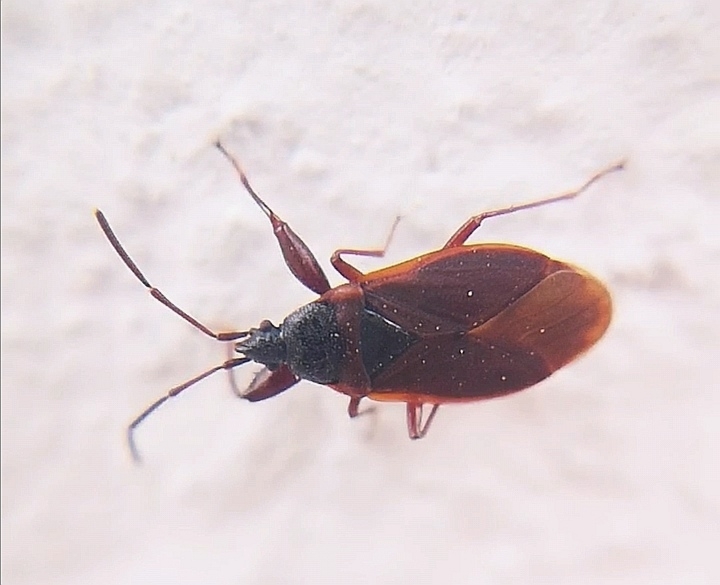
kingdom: Animalia
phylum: Arthropoda
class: Insecta
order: Hemiptera
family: Rhyparochromidae
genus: Gastrodes
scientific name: Gastrodes grossipes
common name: Pine cone bug
